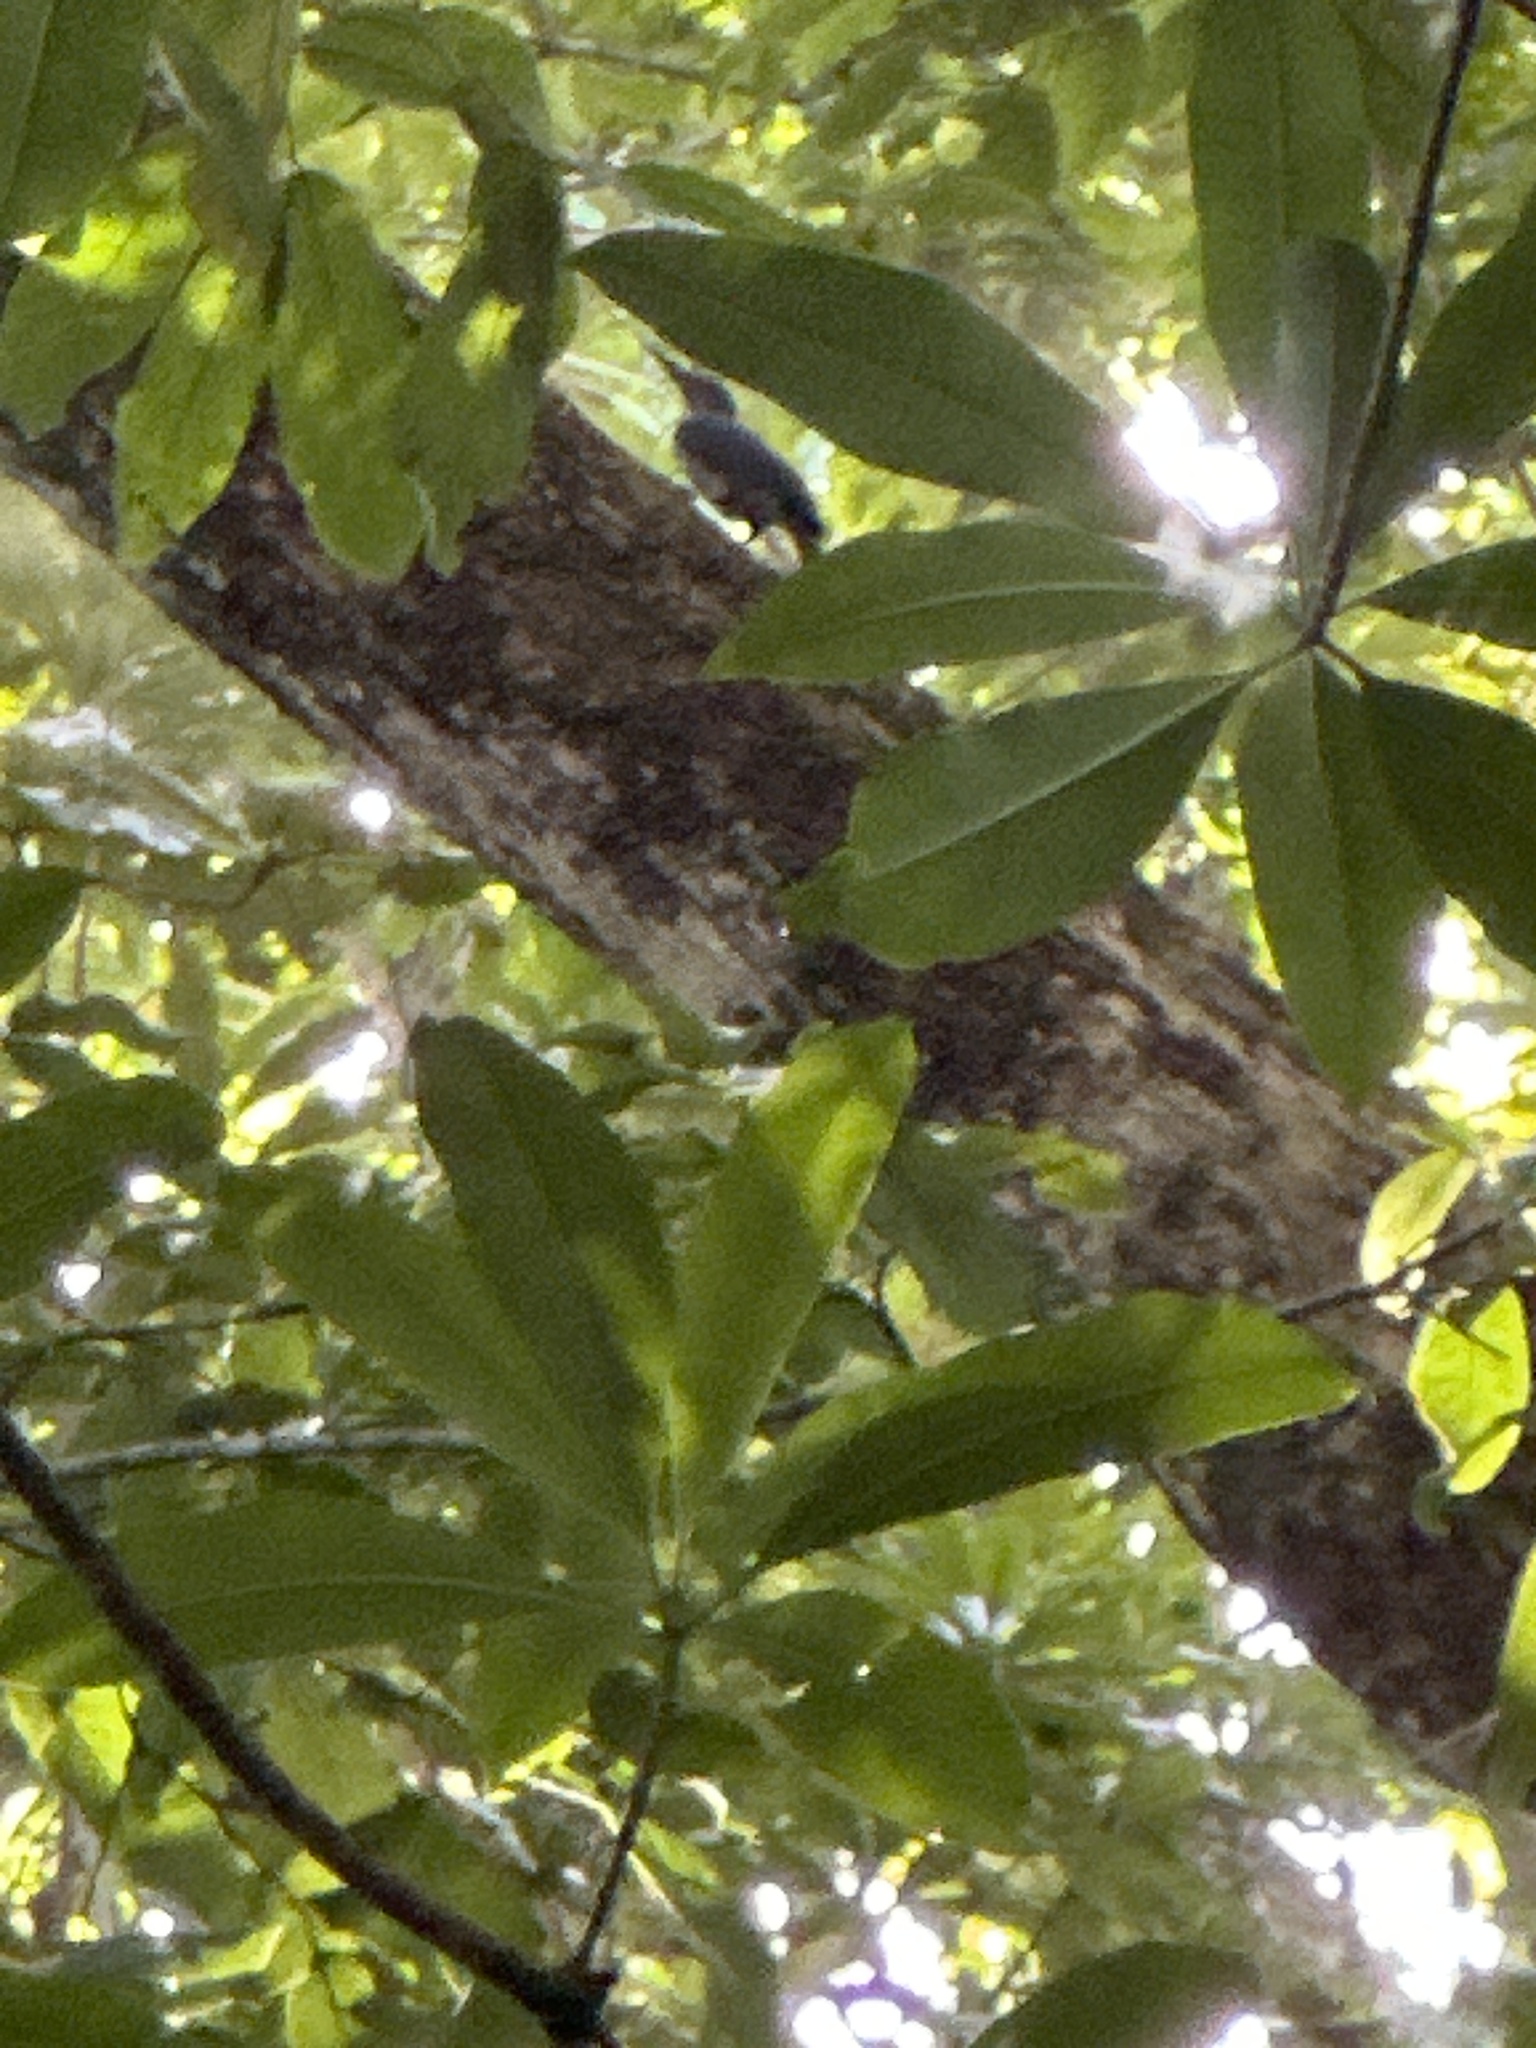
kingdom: Animalia
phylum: Chordata
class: Aves
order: Piciformes
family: Picidae
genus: Mulleripicus
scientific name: Mulleripicus fulvus
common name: Ashy woodpecker
